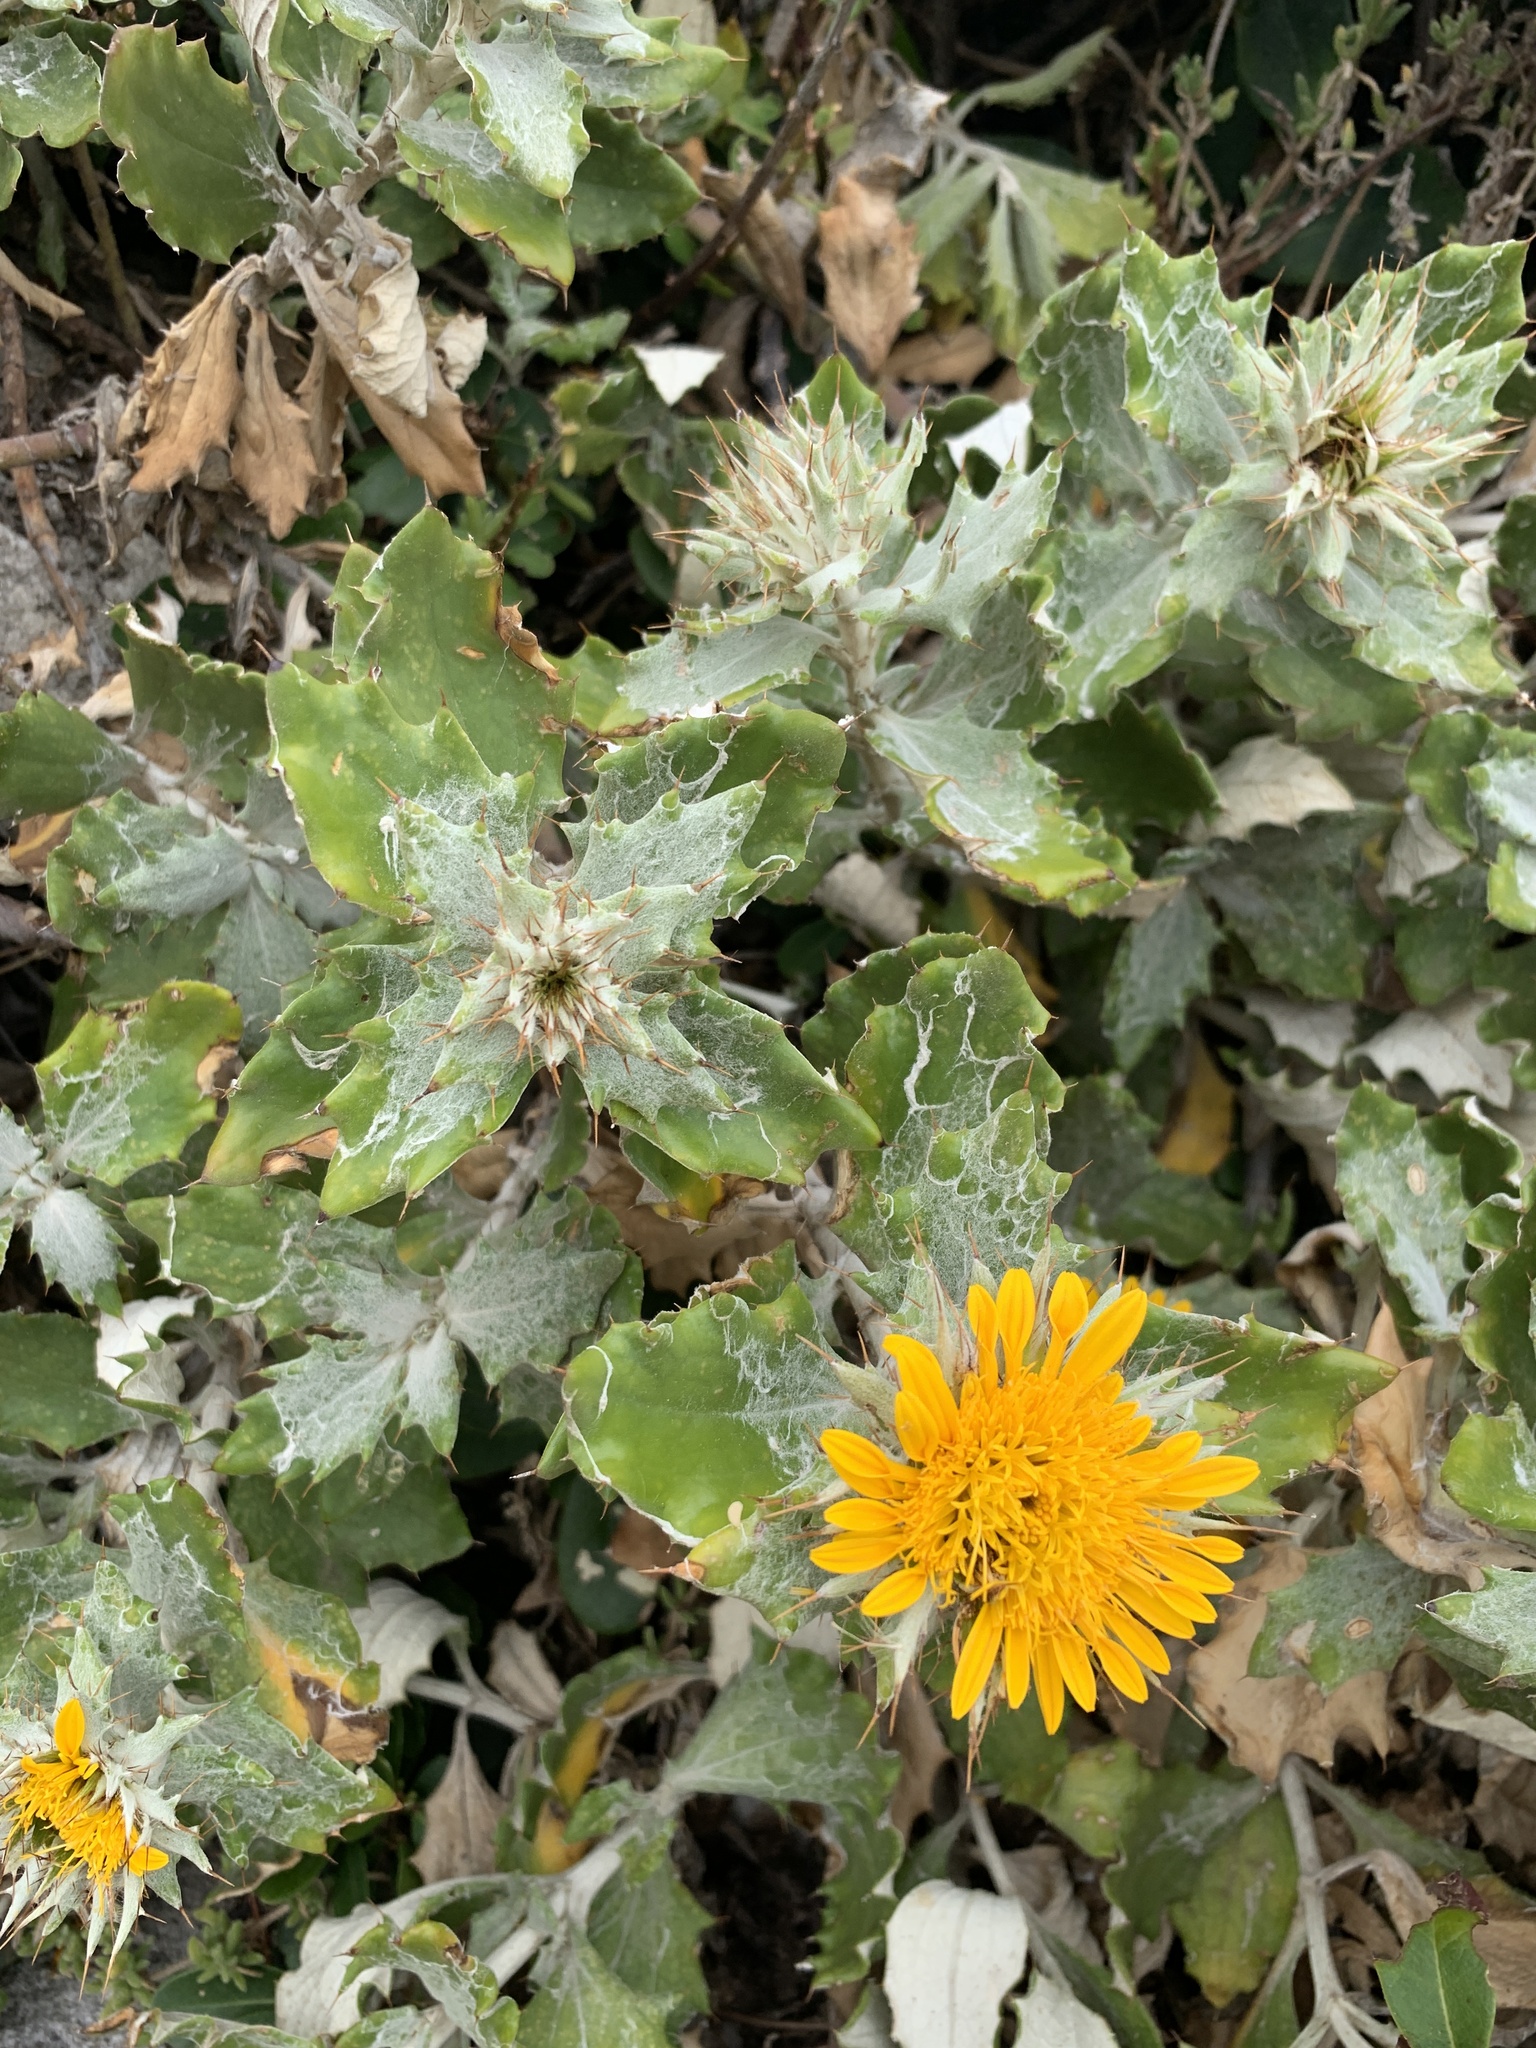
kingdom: Plantae
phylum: Tracheophyta
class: Magnoliopsida
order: Asterales
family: Asteraceae
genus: Berkheya
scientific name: Berkheya barbata
